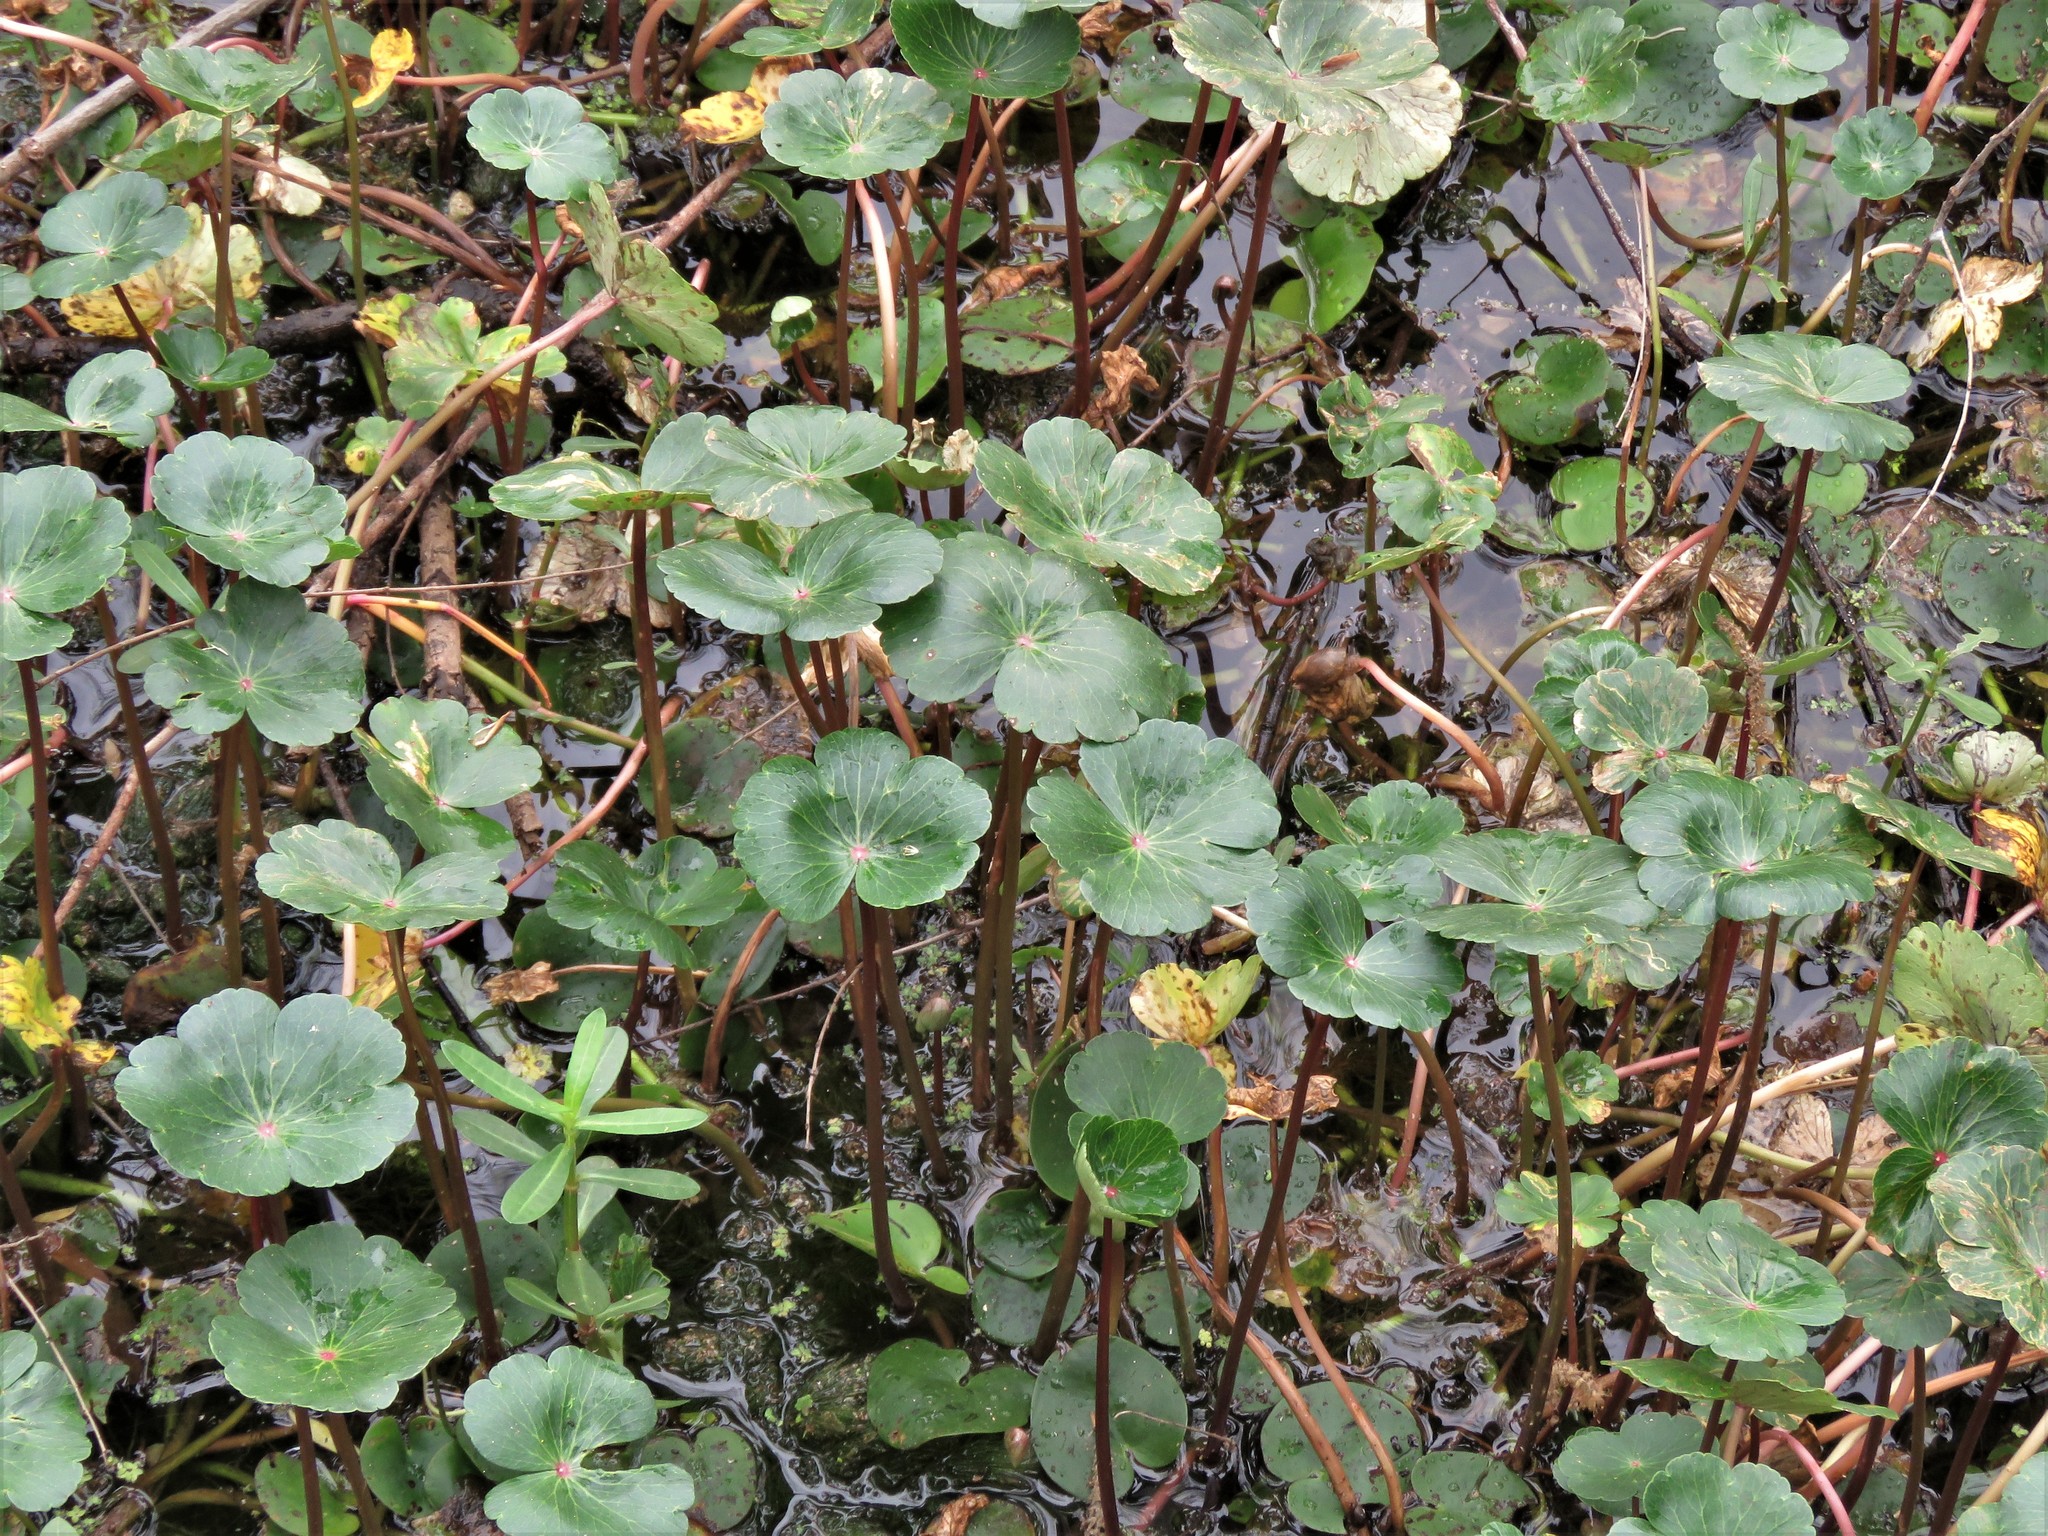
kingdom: Plantae
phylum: Tracheophyta
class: Magnoliopsida
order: Apiales
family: Araliaceae
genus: Hydrocotyle
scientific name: Hydrocotyle ranunculoides
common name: Floating pennywort
